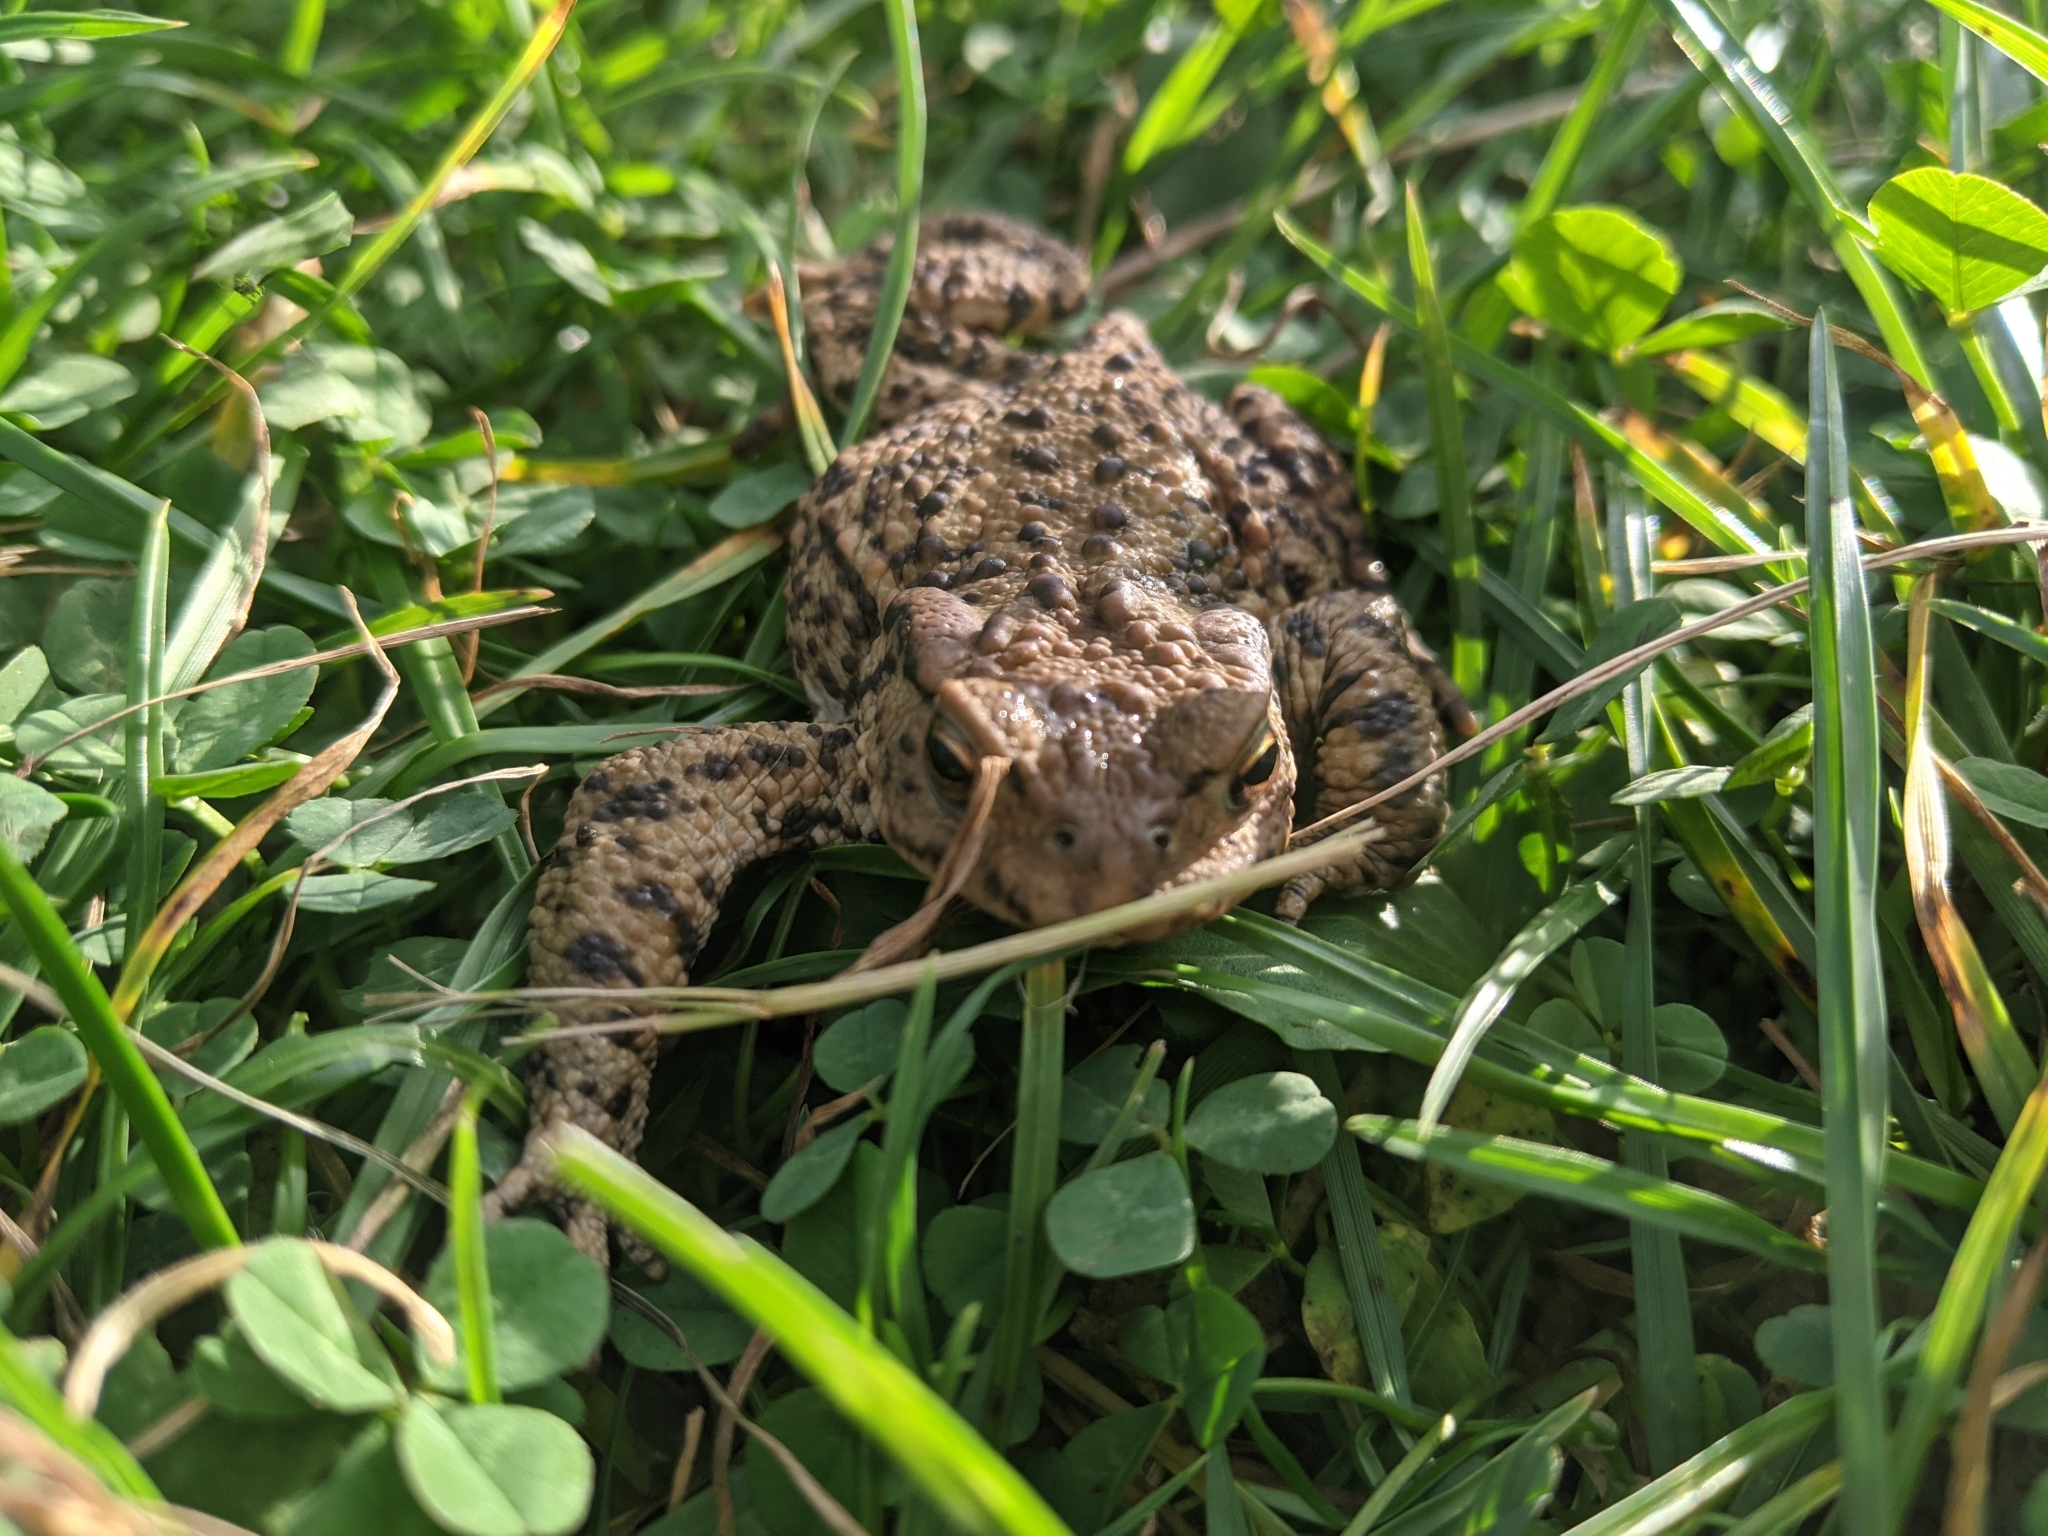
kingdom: Animalia
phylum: Chordata
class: Amphibia
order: Anura
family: Bufonidae
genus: Bufo
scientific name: Bufo bufo
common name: Common toad
